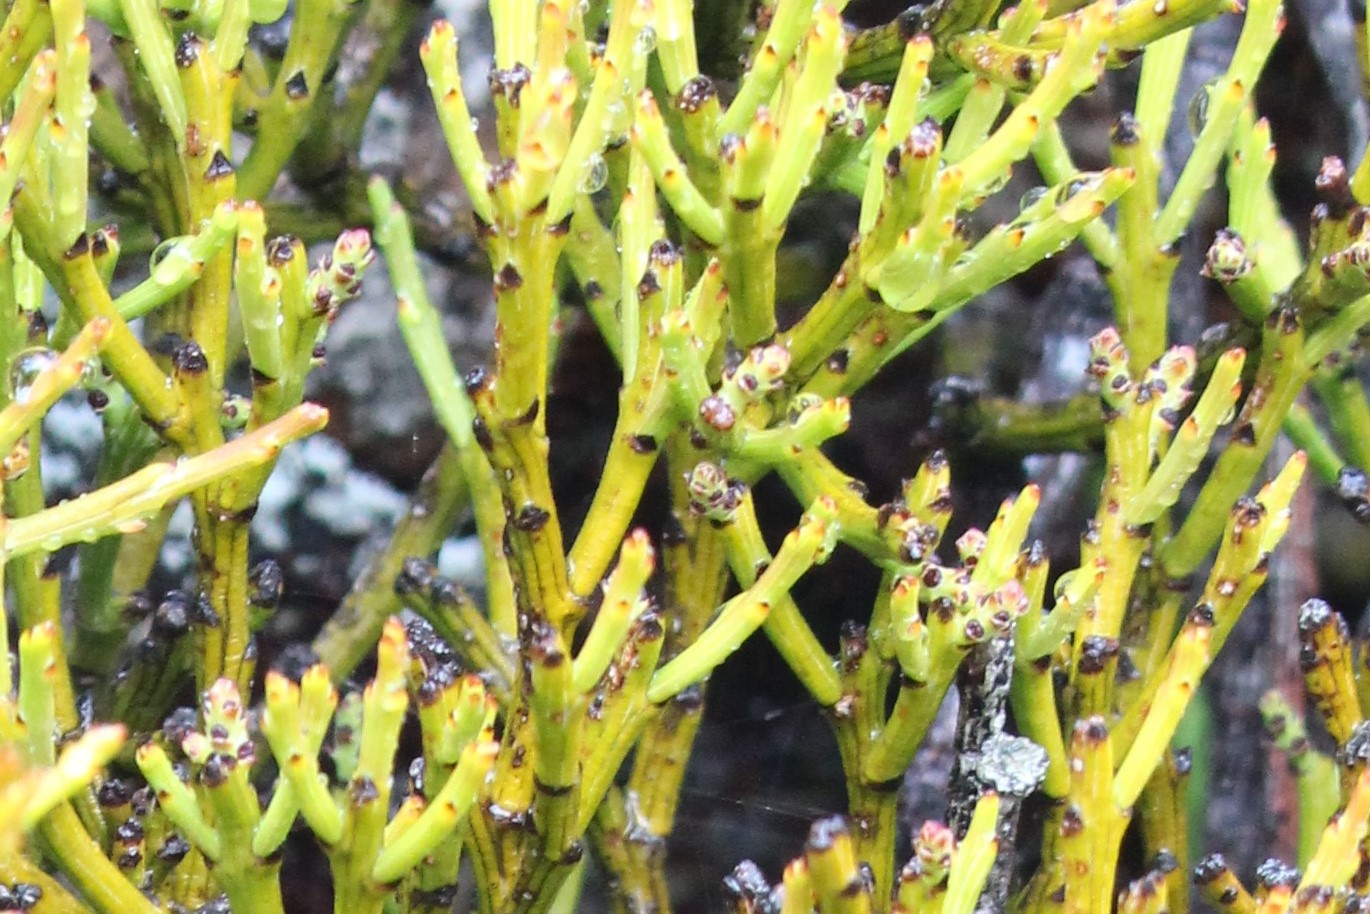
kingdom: Plantae
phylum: Tracheophyta
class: Magnoliopsida
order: Santalales
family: Santalaceae
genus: Exocarpos
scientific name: Exocarpos bidwillii
